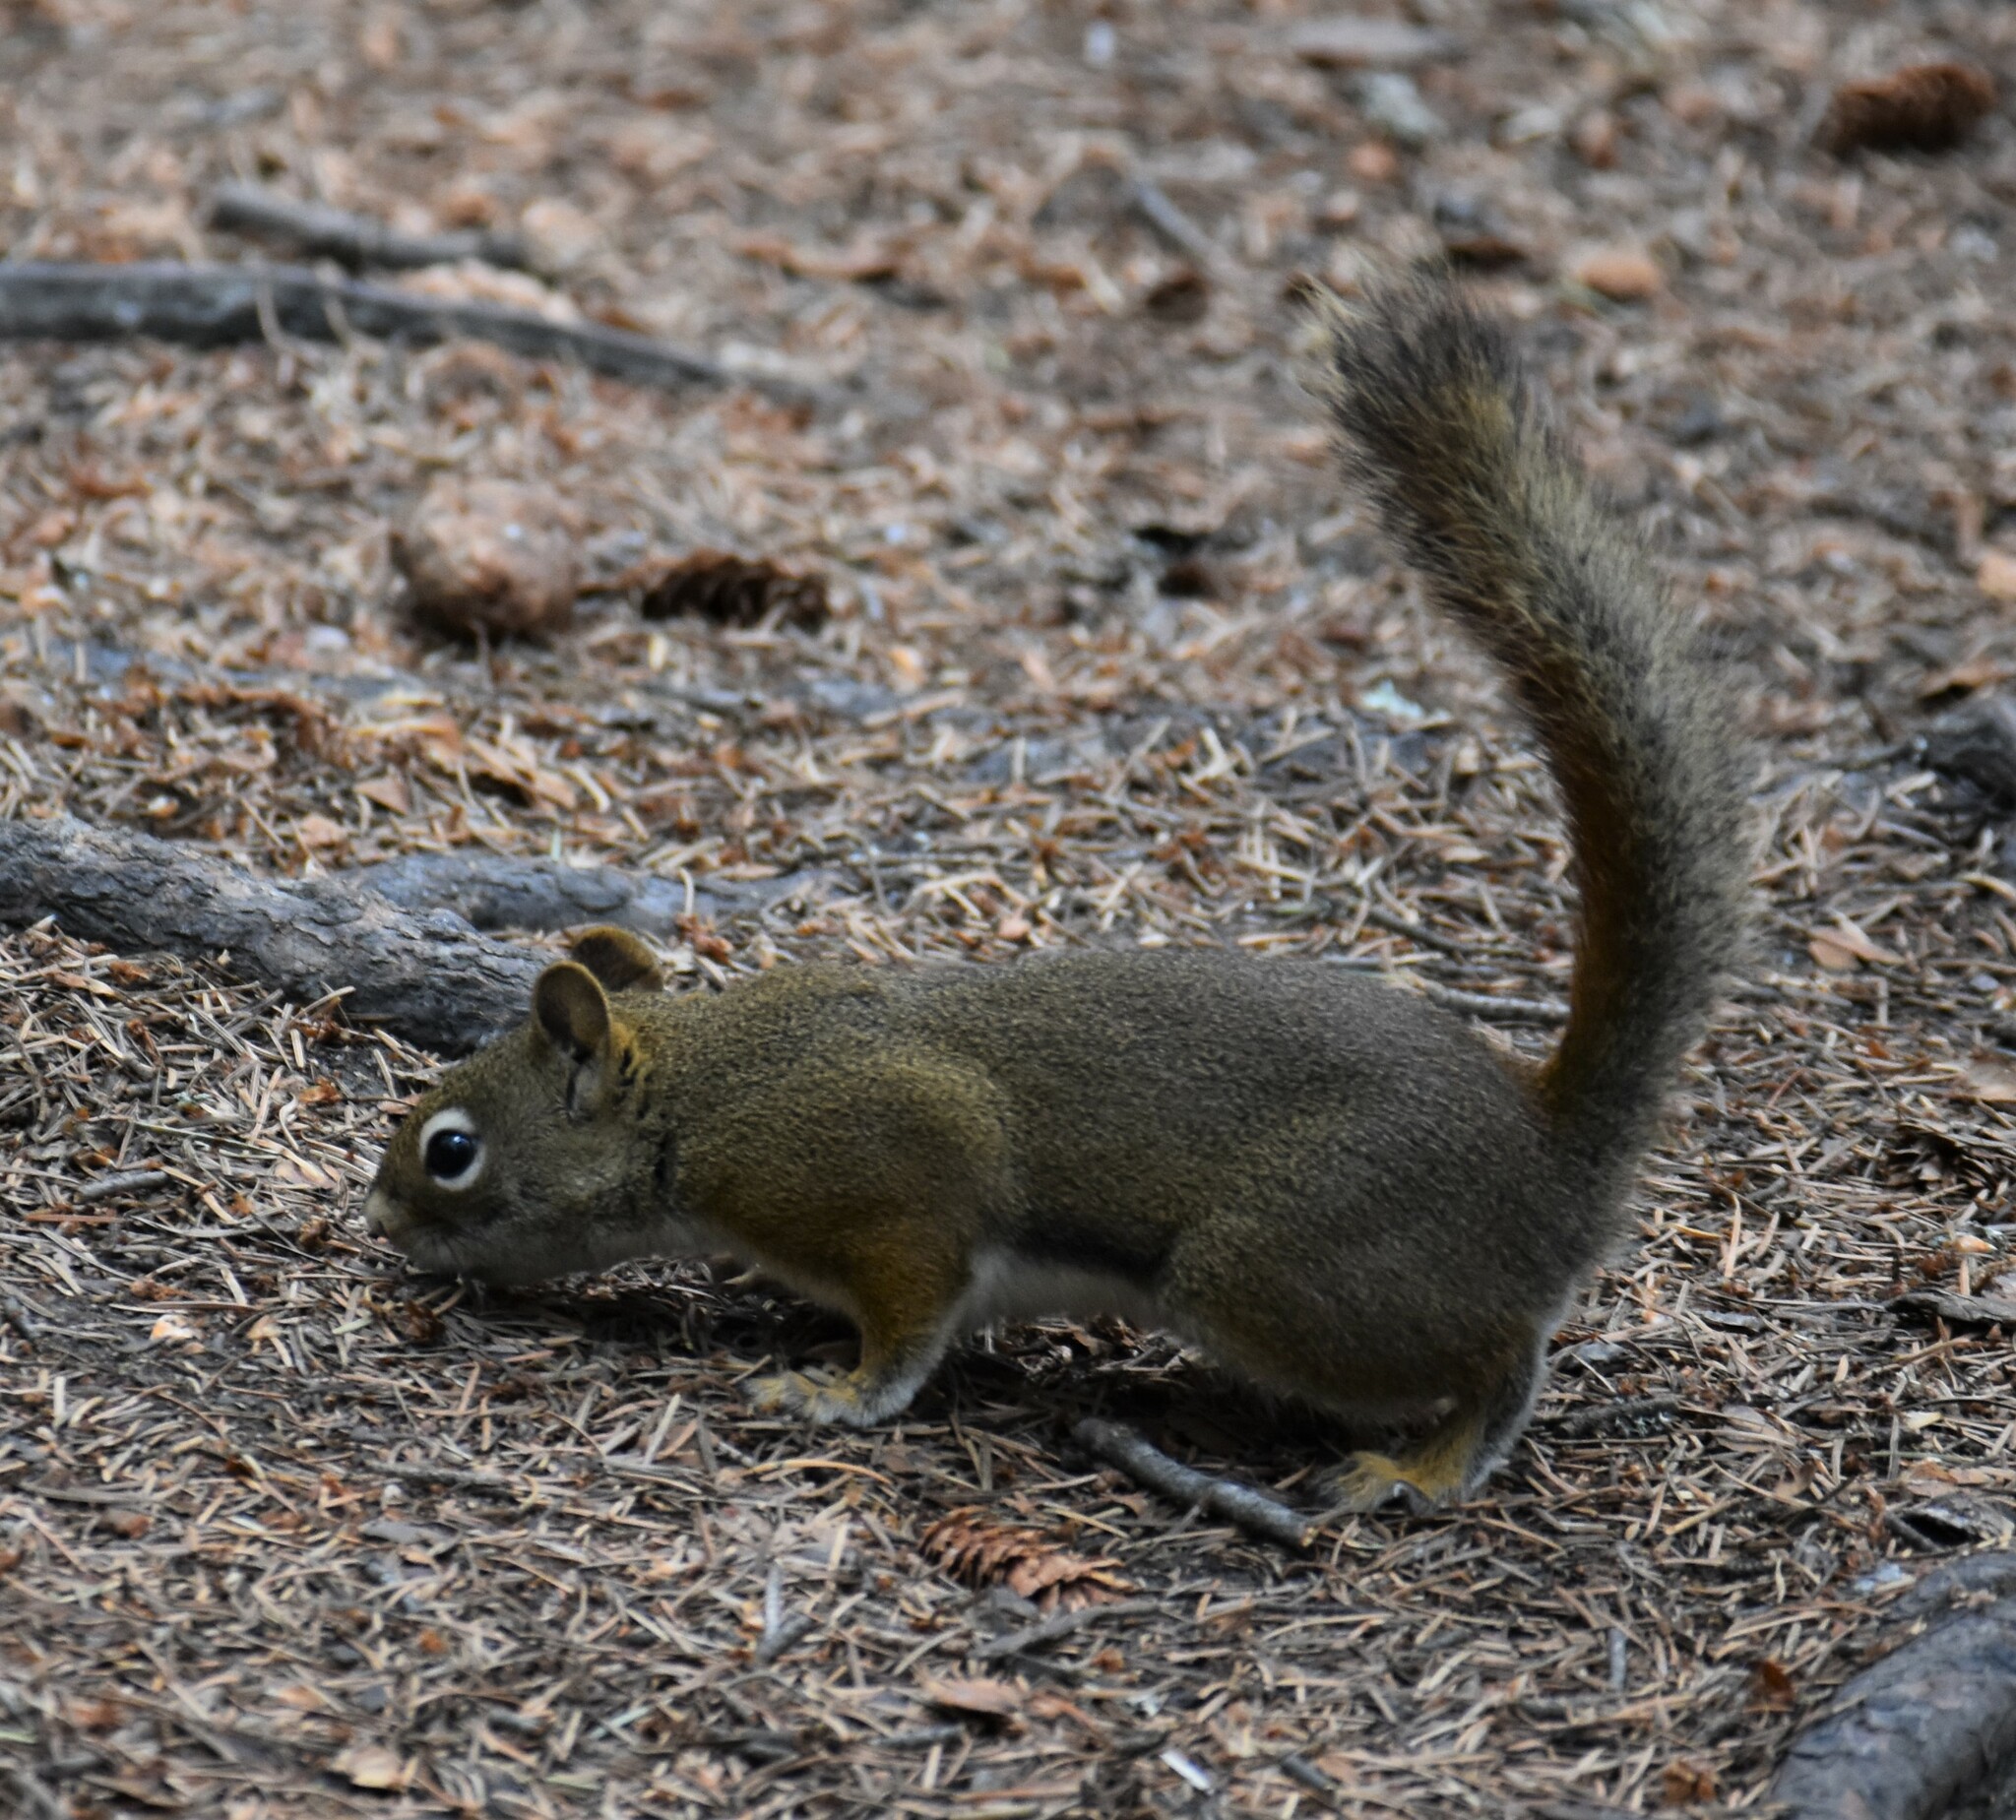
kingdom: Animalia
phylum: Chordata
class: Mammalia
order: Rodentia
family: Sciuridae
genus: Tamiasciurus
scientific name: Tamiasciurus hudsonicus
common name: Red squirrel
